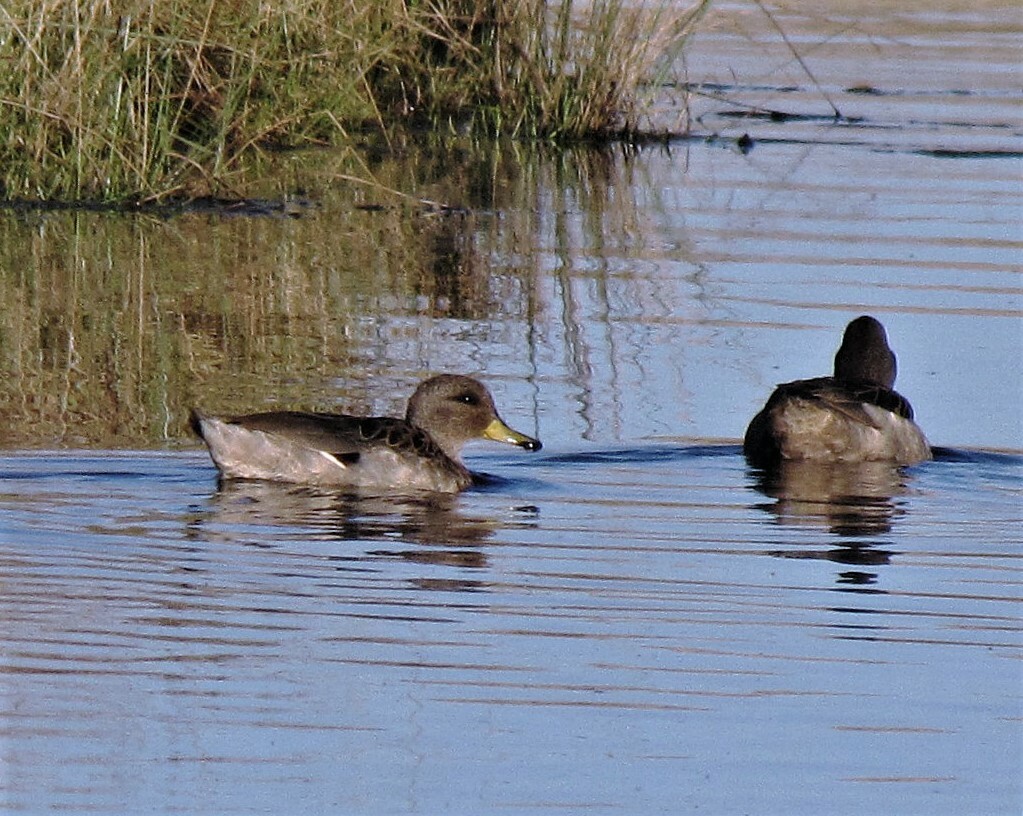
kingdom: Animalia
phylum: Chordata
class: Aves
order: Anseriformes
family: Anatidae
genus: Anas
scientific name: Anas flavirostris
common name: Yellow-billed teal
